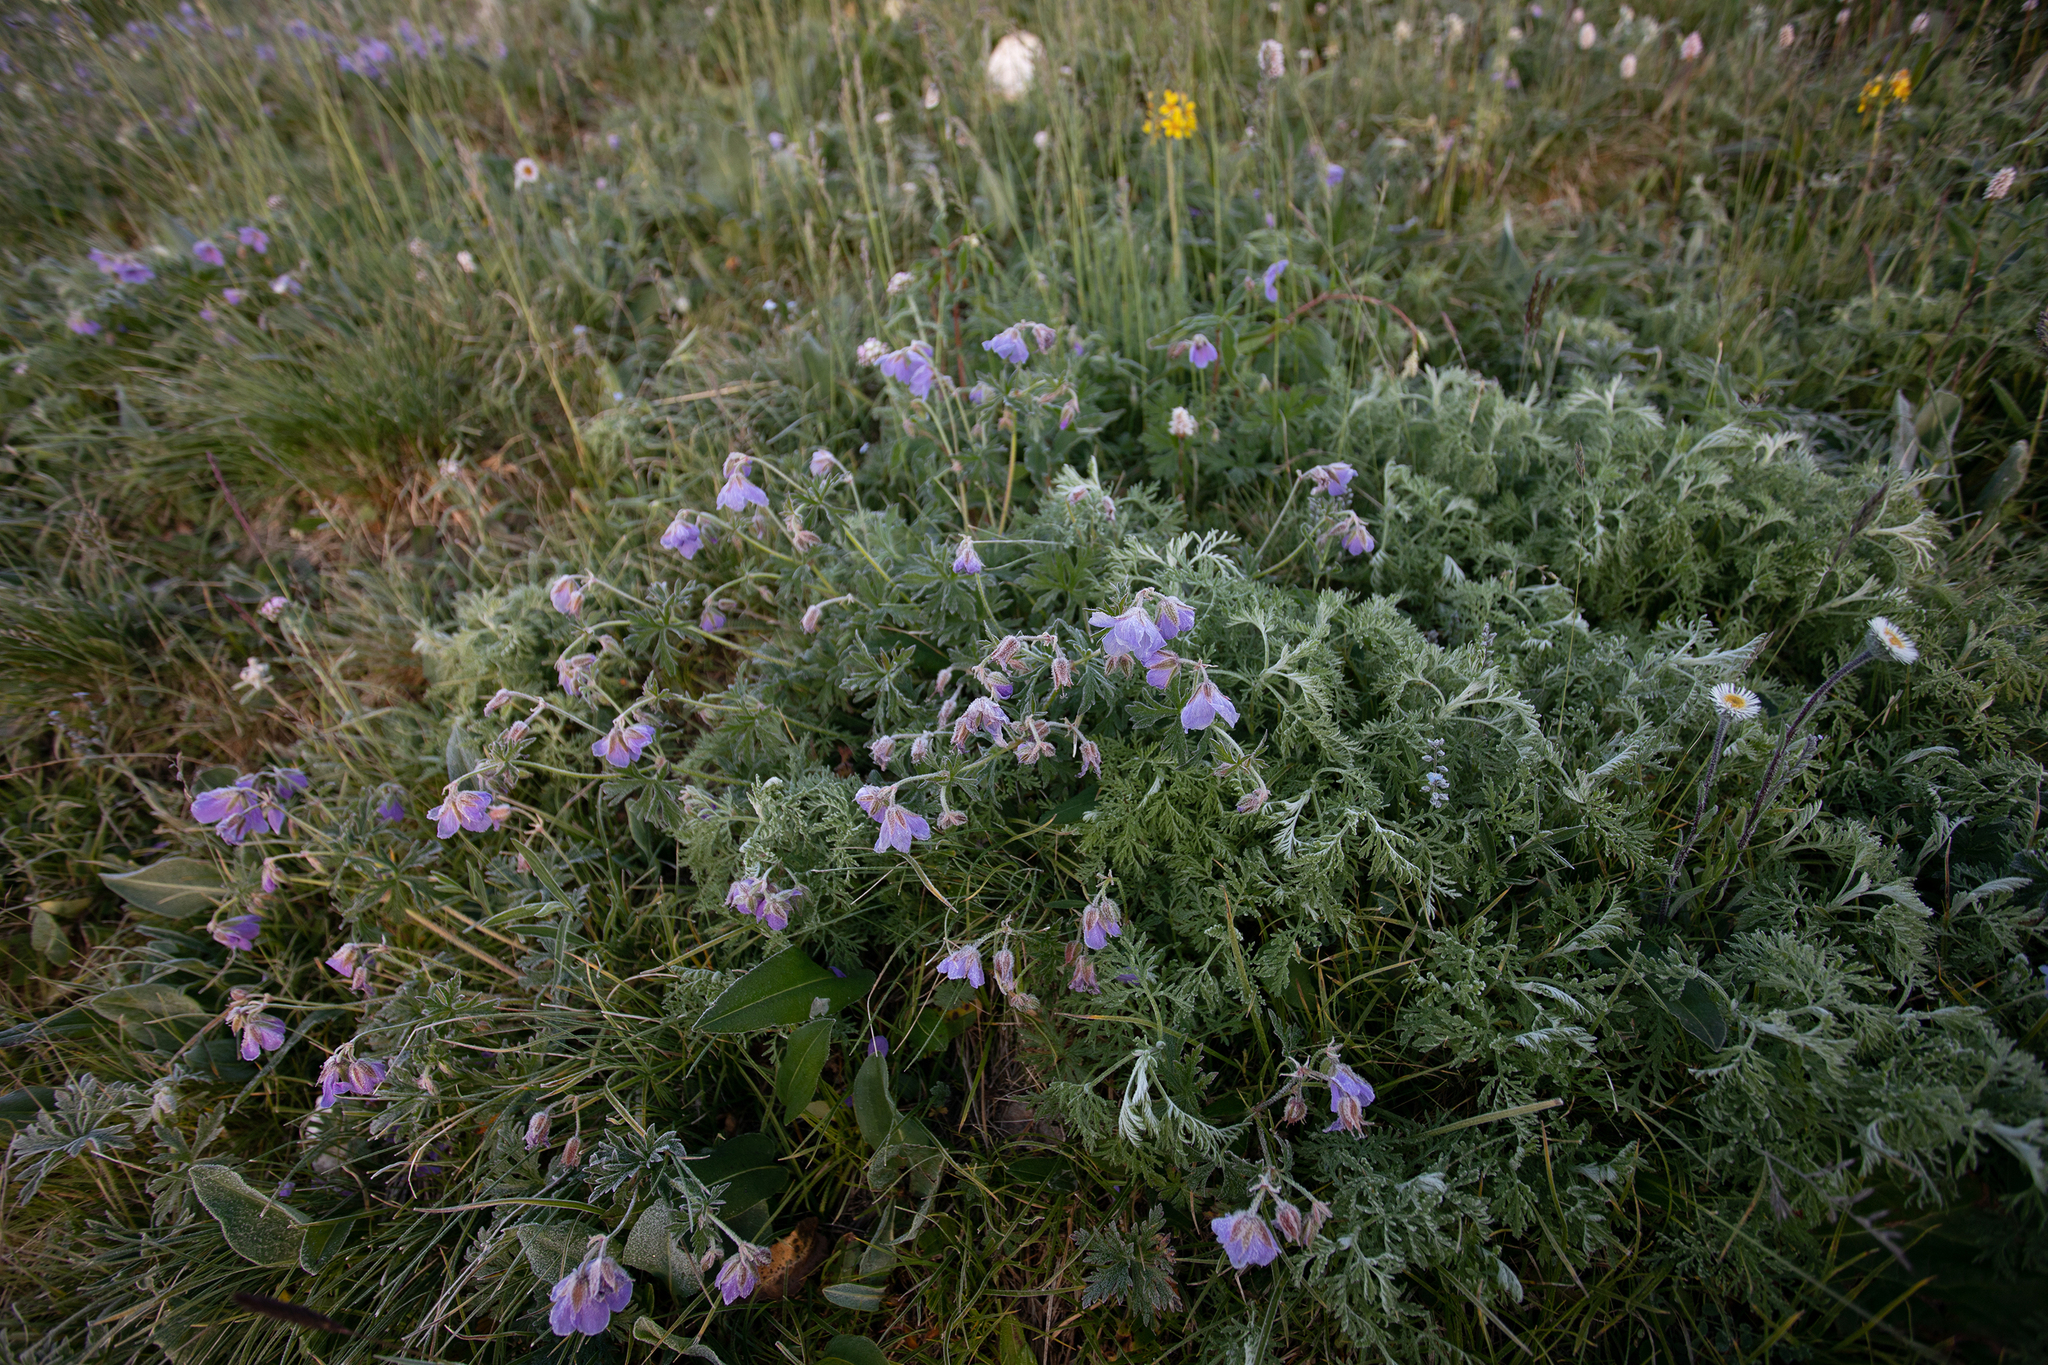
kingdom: Plantae
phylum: Tracheophyta
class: Magnoliopsida
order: Geraniales
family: Geraniaceae
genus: Geranium
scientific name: Geranium pratense
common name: Meadow crane's-bill
